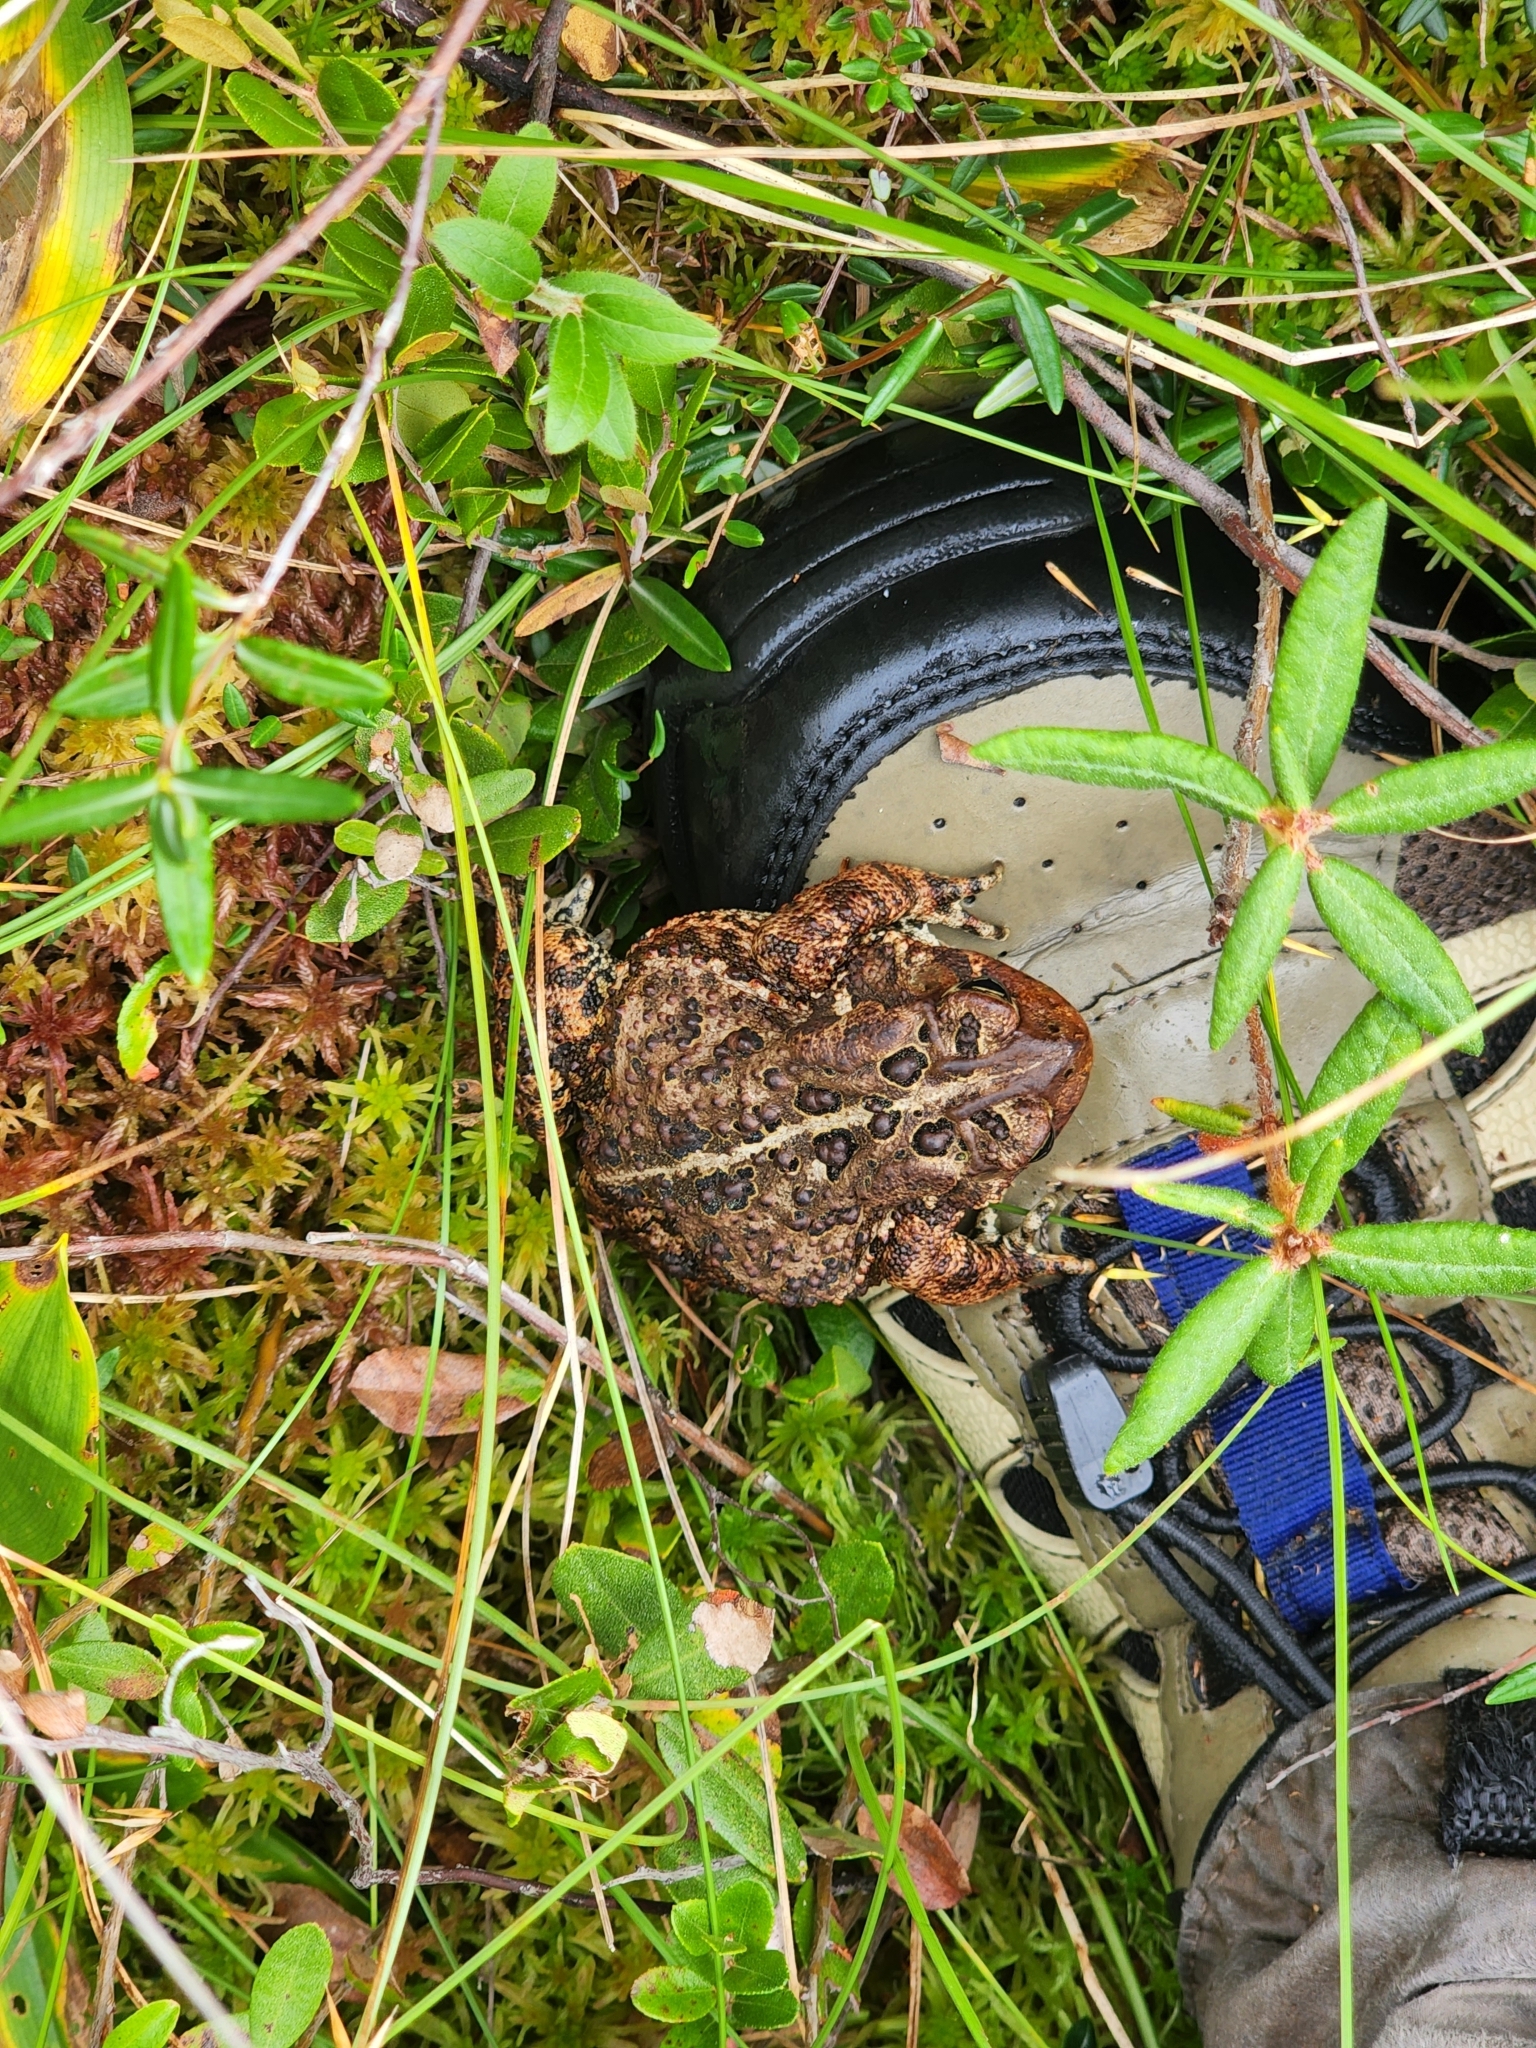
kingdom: Animalia
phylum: Chordata
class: Amphibia
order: Anura
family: Bufonidae
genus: Anaxyrus
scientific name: Anaxyrus americanus
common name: American toad
